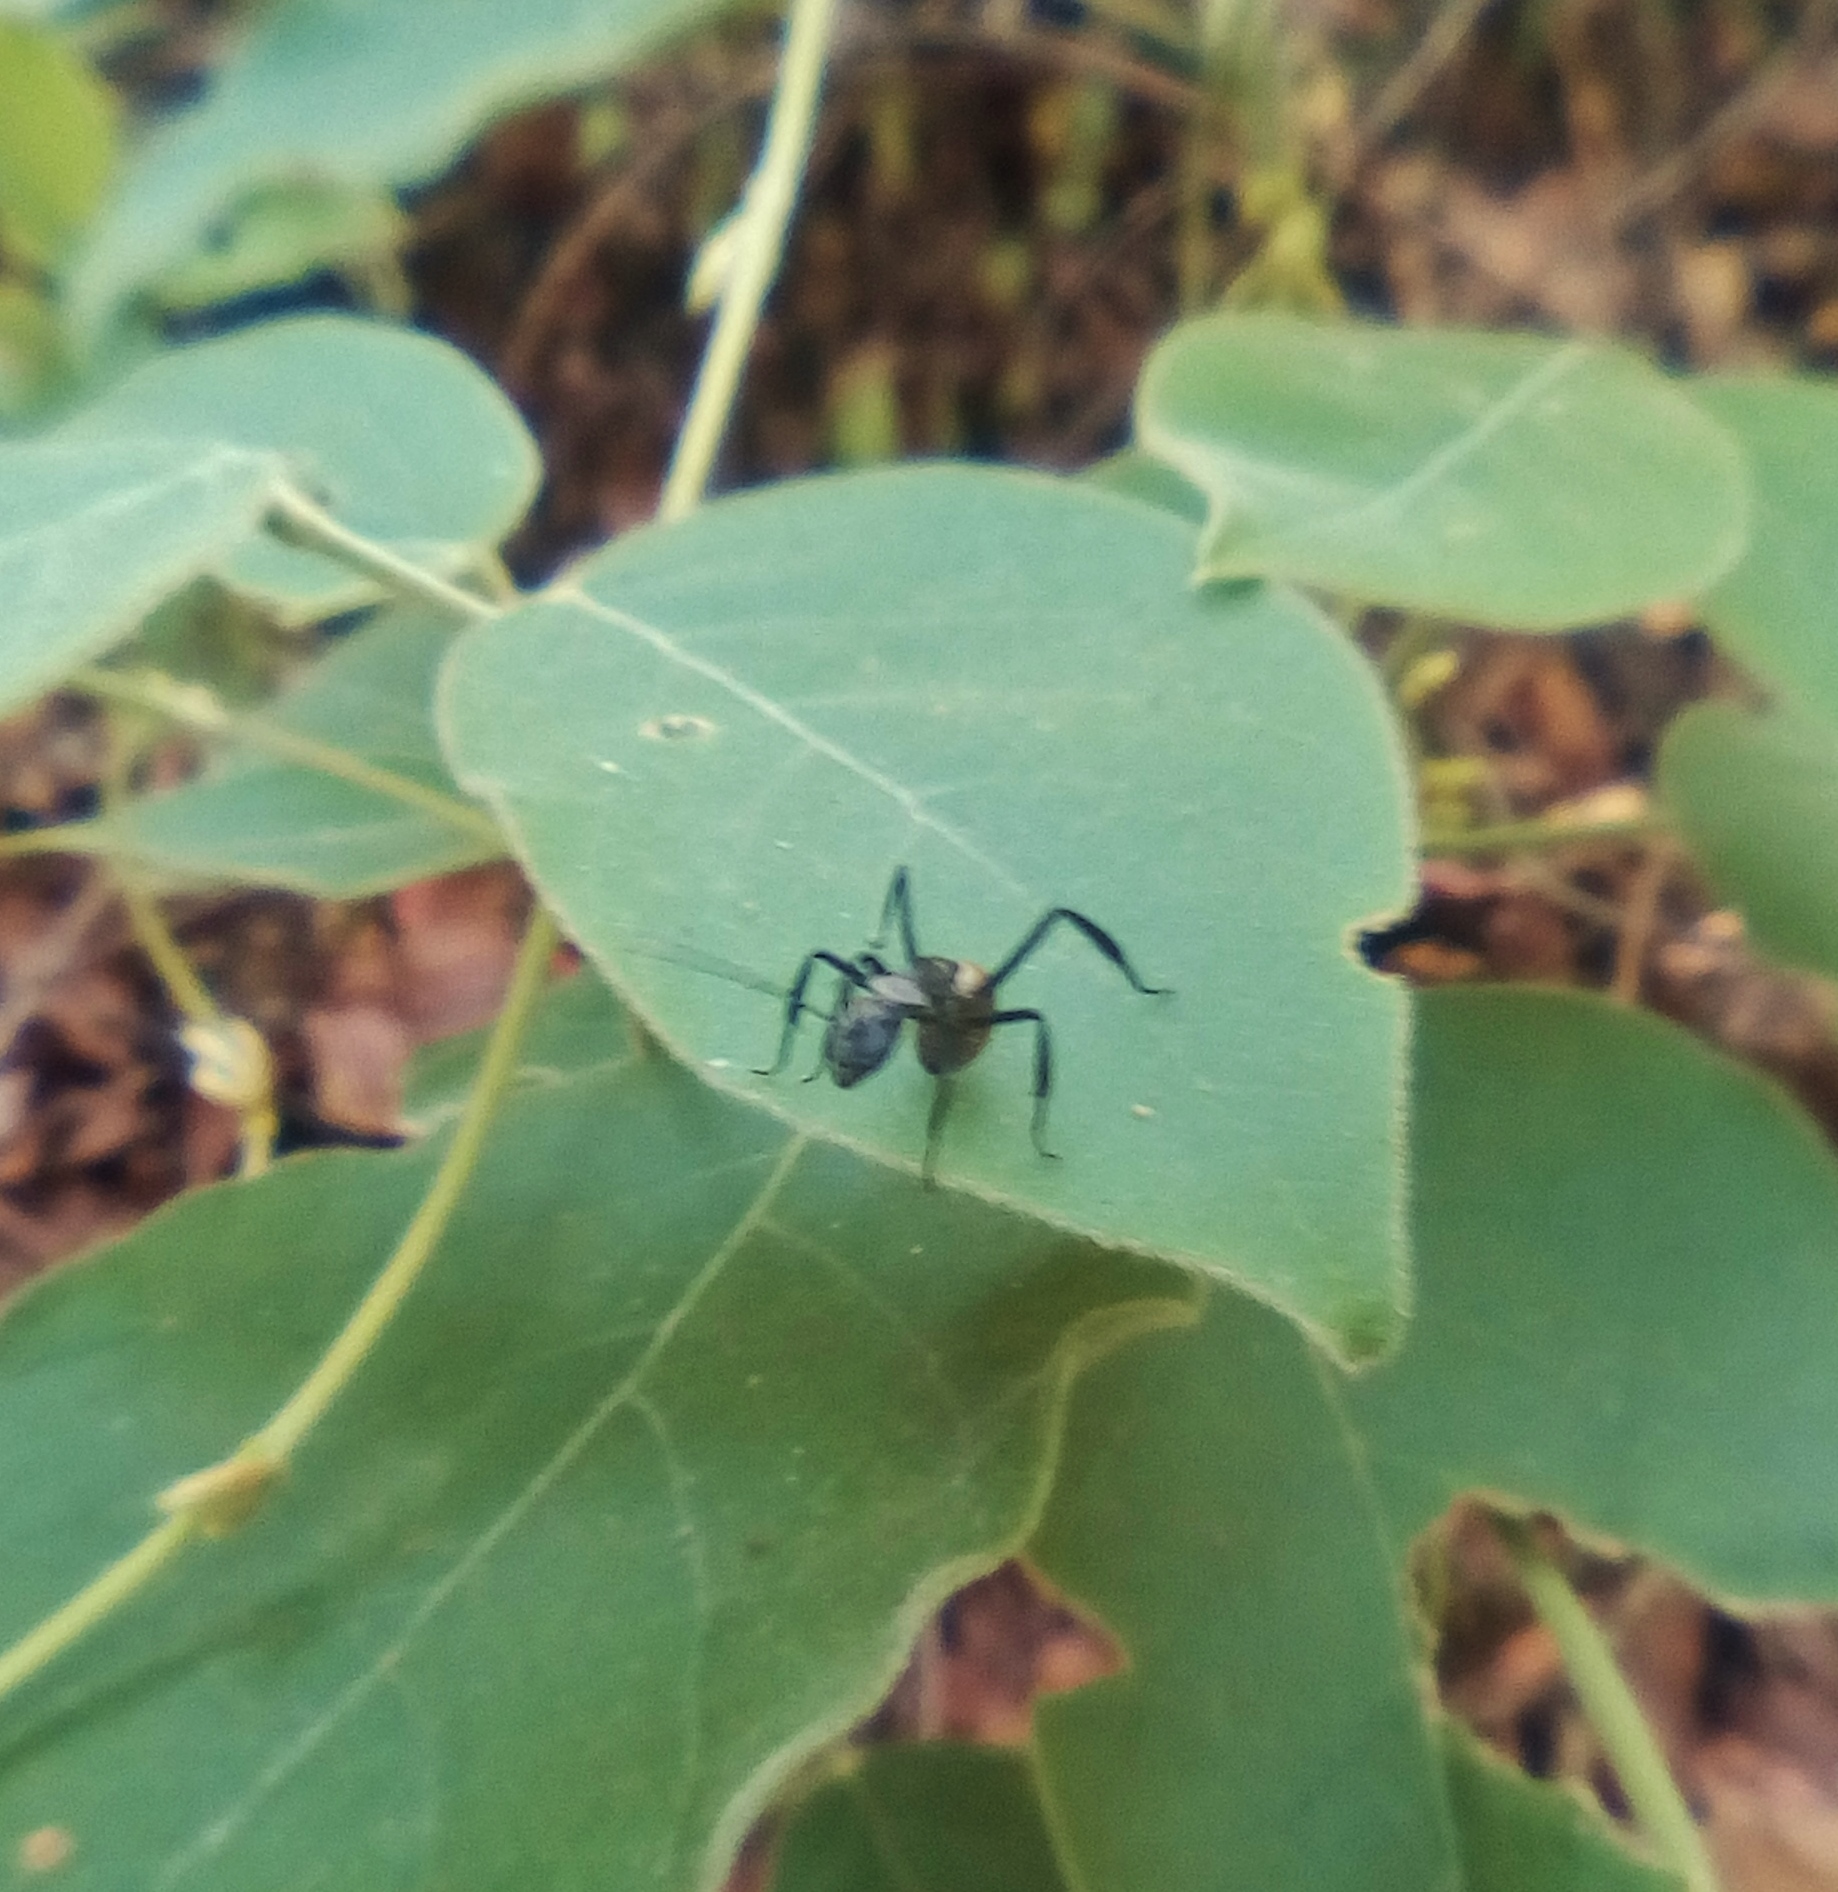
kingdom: Animalia
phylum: Arthropoda
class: Insecta
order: Hymenoptera
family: Formicidae
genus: Camponotus
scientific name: Camponotus sericeiventris
